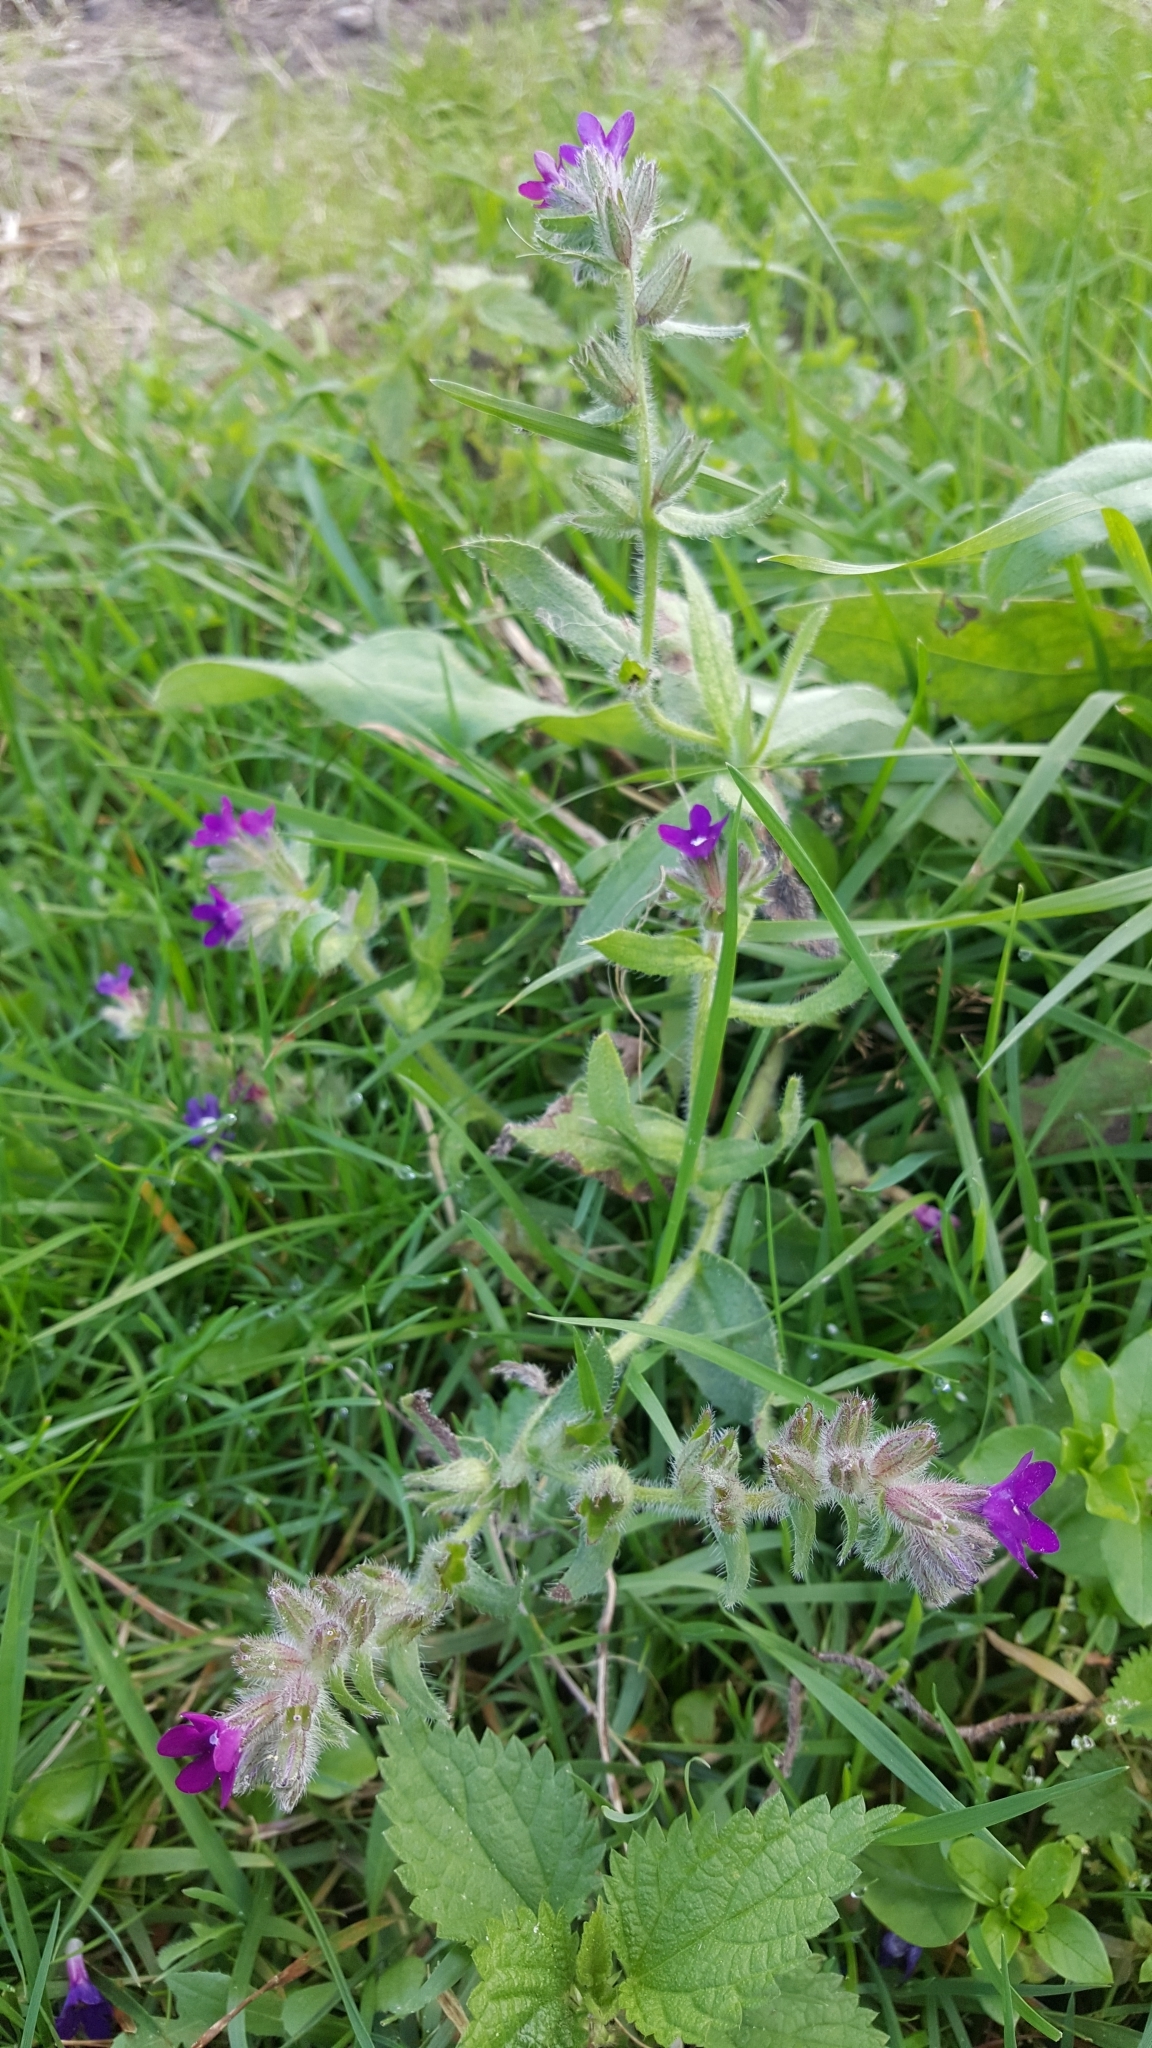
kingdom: Plantae
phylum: Tracheophyta
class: Magnoliopsida
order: Boraginales
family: Boraginaceae
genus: Anchusa
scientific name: Anchusa officinalis
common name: Alkanet
